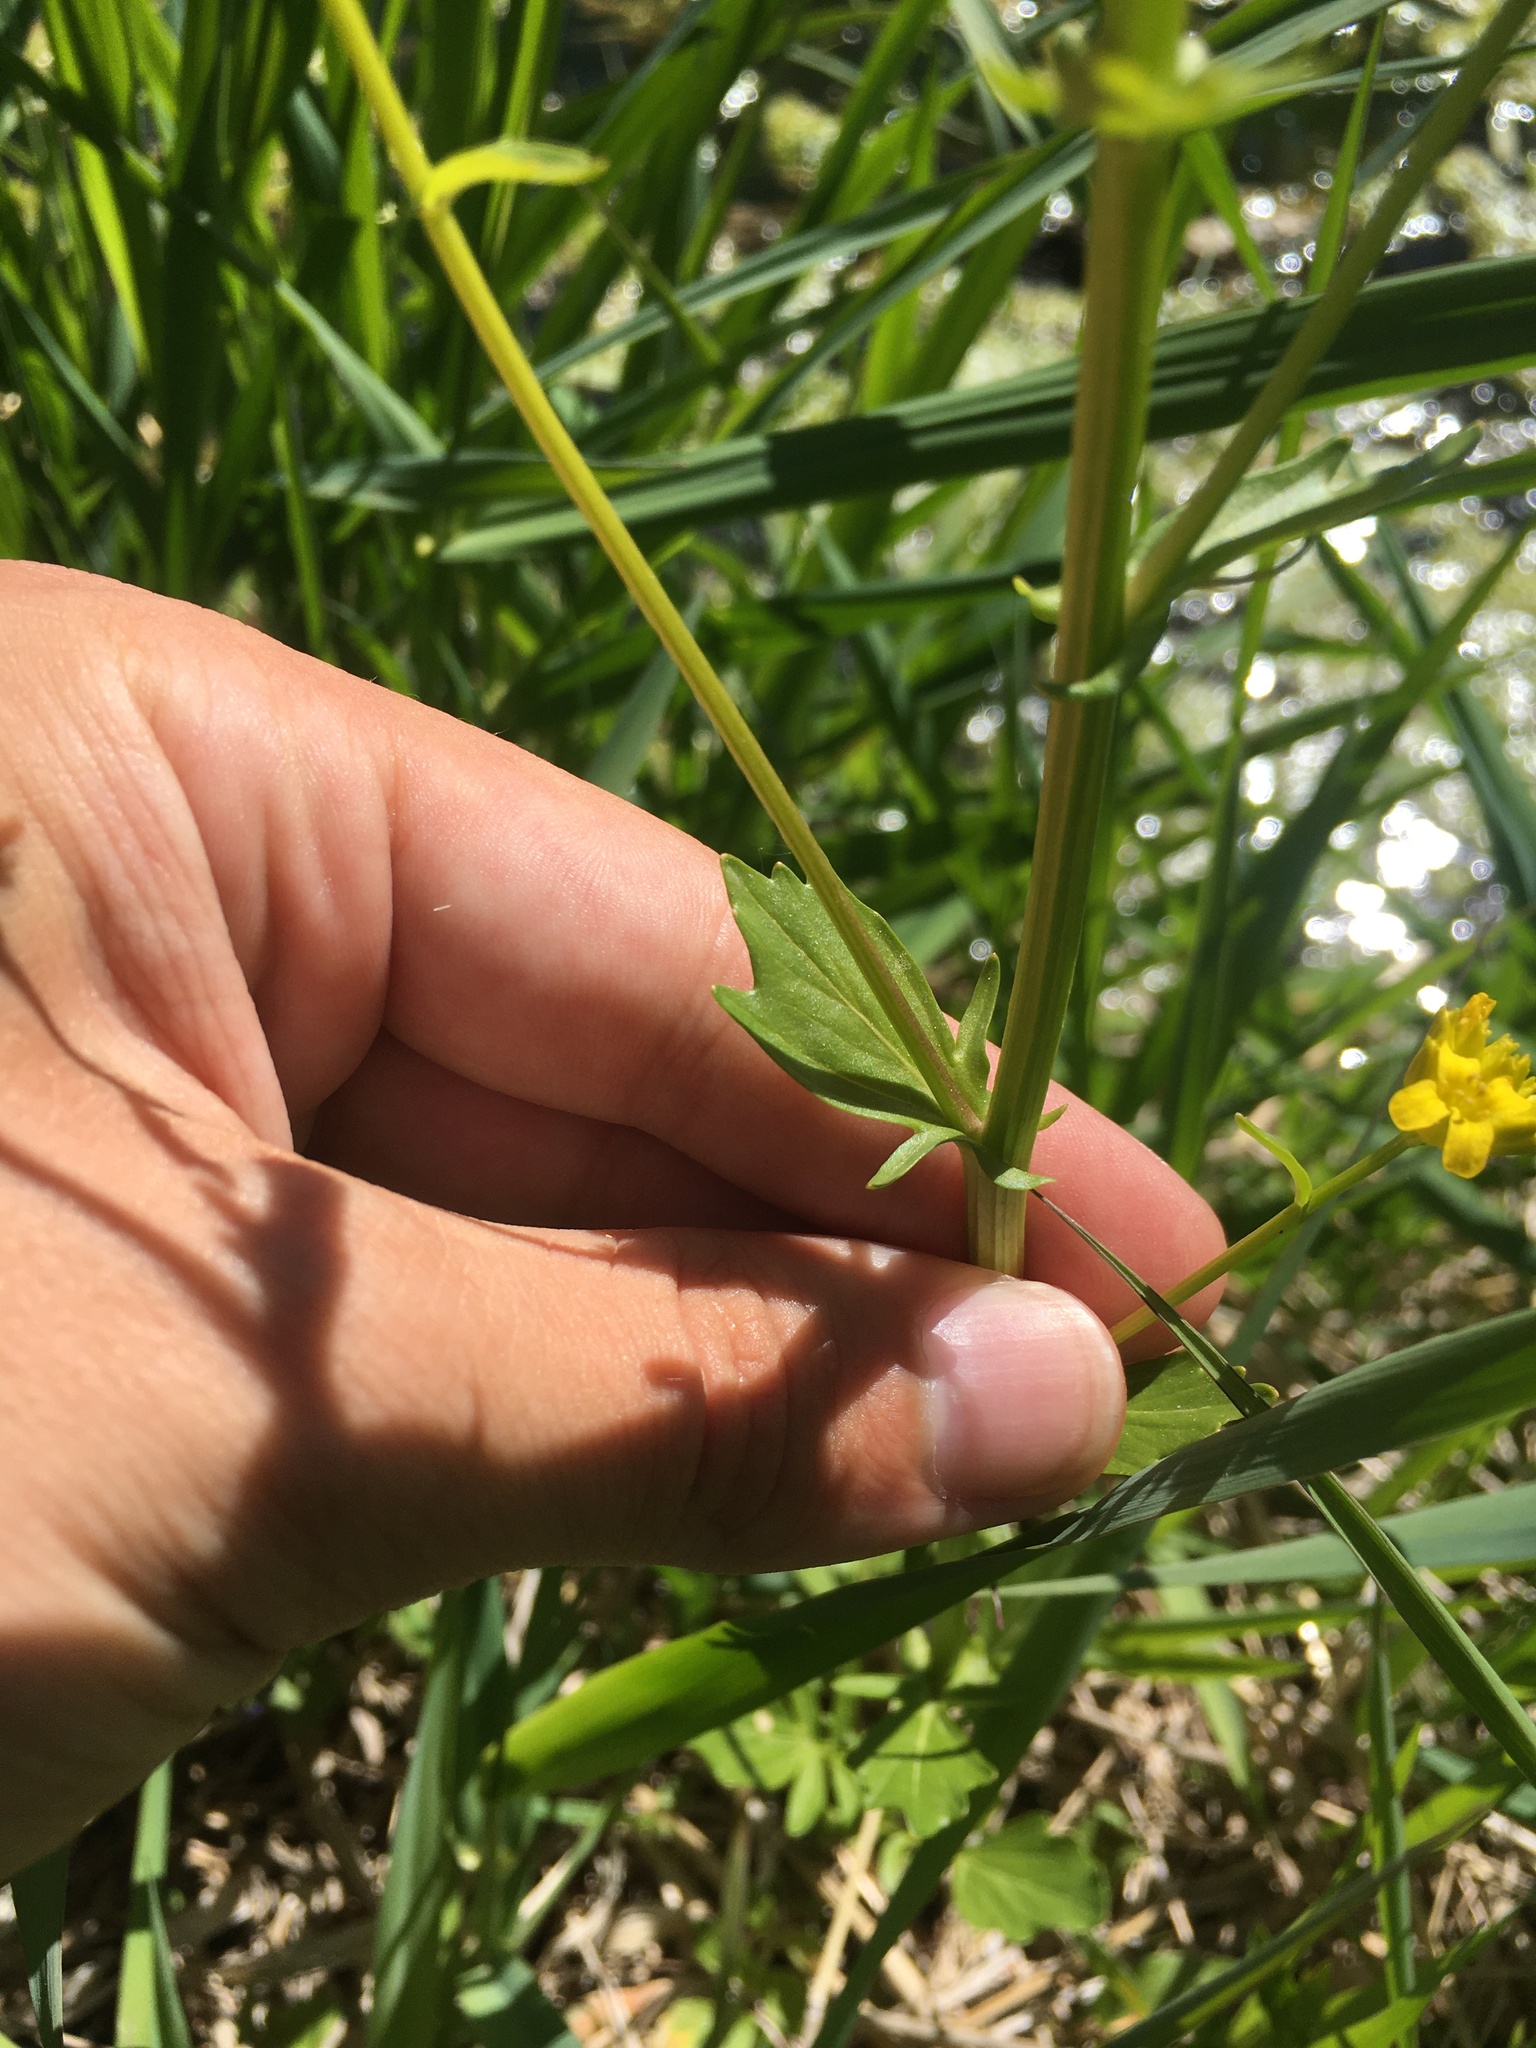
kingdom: Plantae
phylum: Tracheophyta
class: Magnoliopsida
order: Brassicales
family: Brassicaceae
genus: Barbarea
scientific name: Barbarea vulgaris
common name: Cressy-greens
